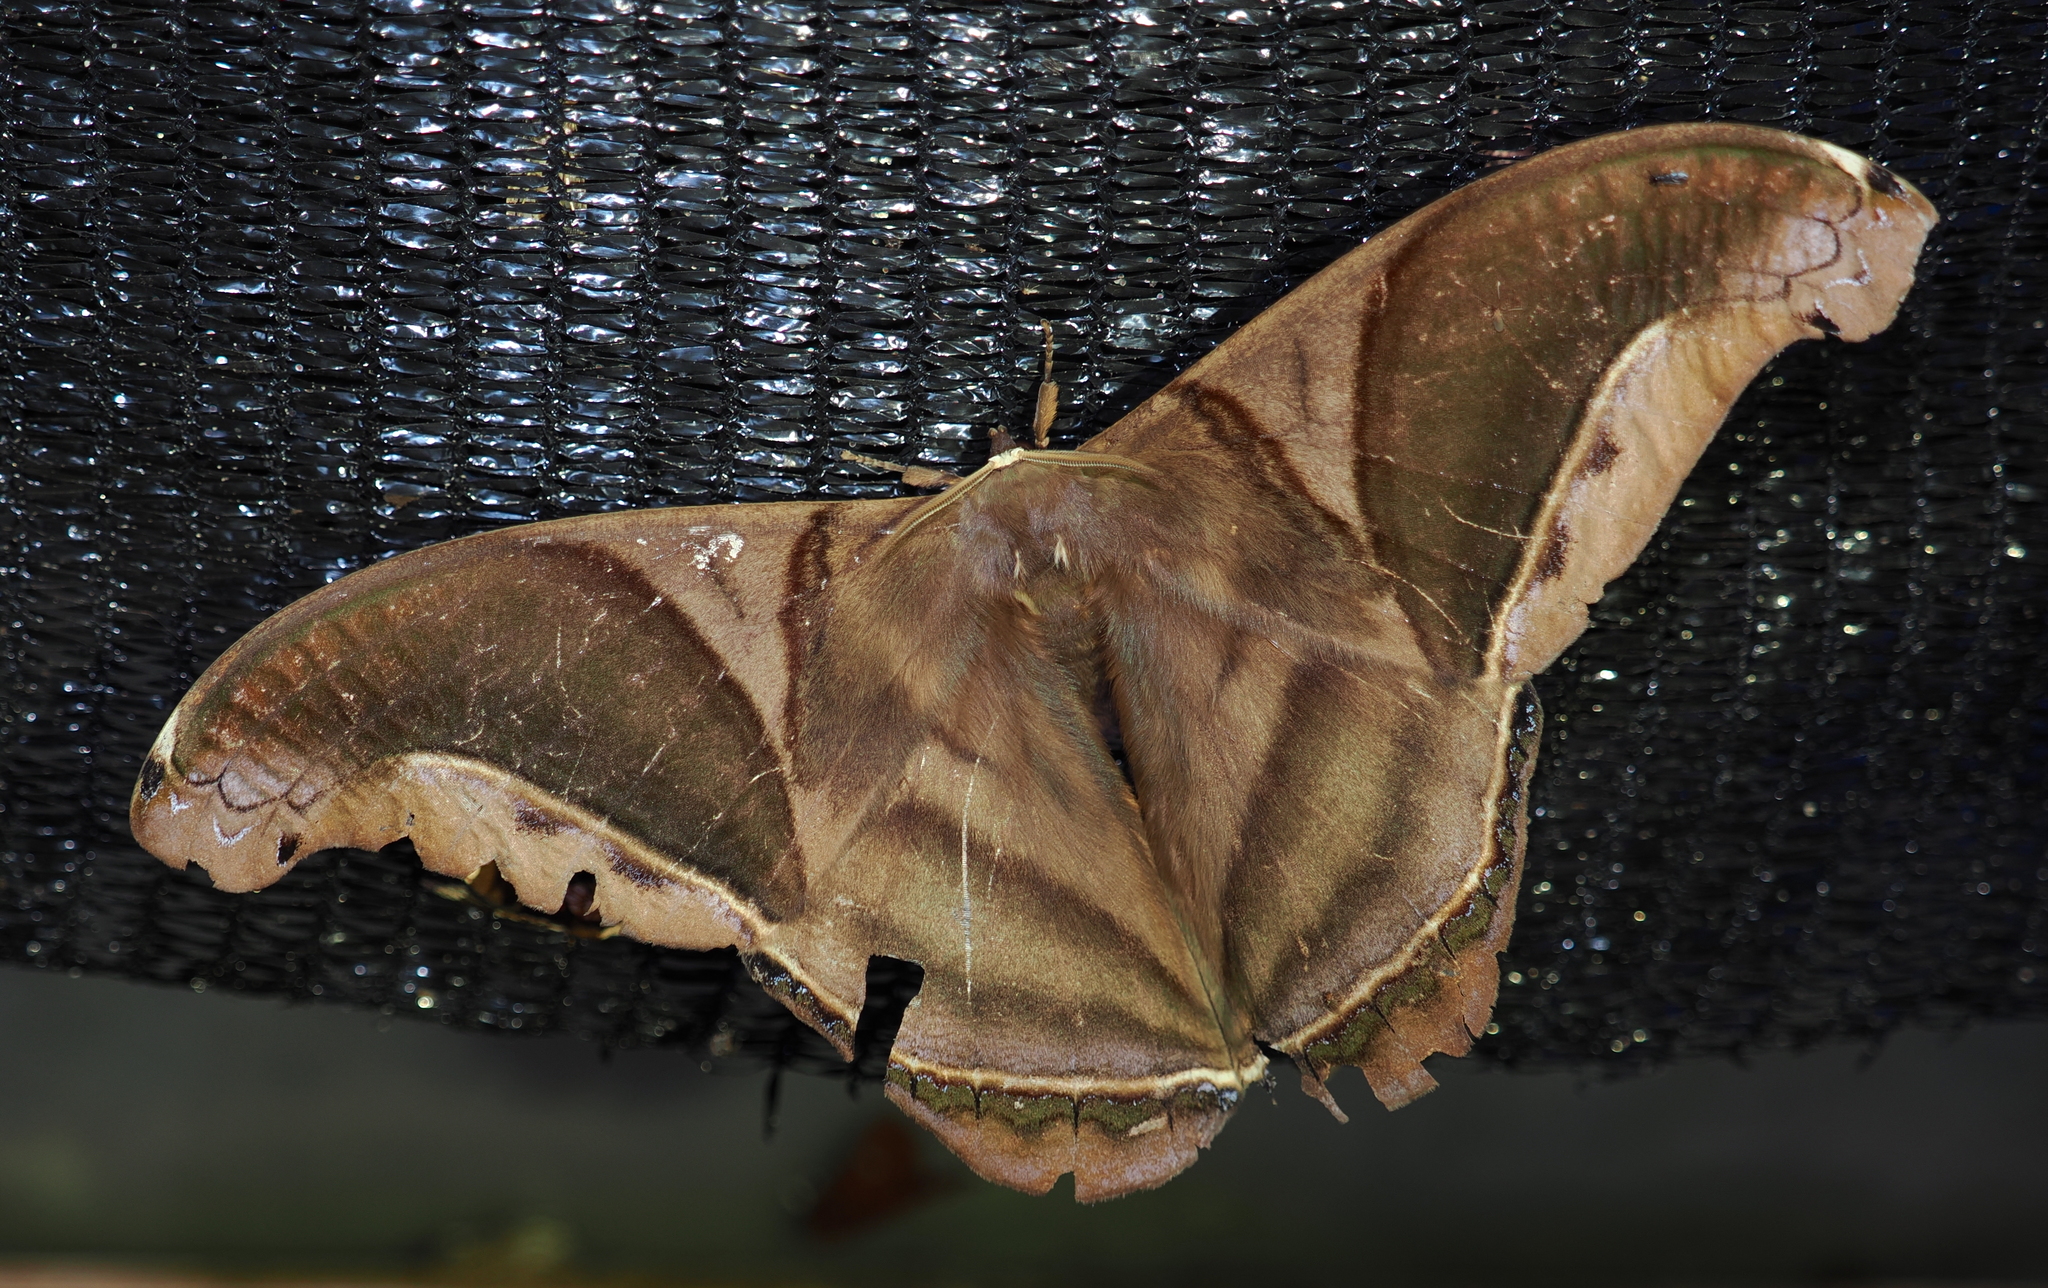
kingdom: Animalia
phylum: Arthropoda
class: Insecta
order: Lepidoptera
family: Saturniidae
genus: Rhescyntis
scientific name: Rhescyntis hippodamia
